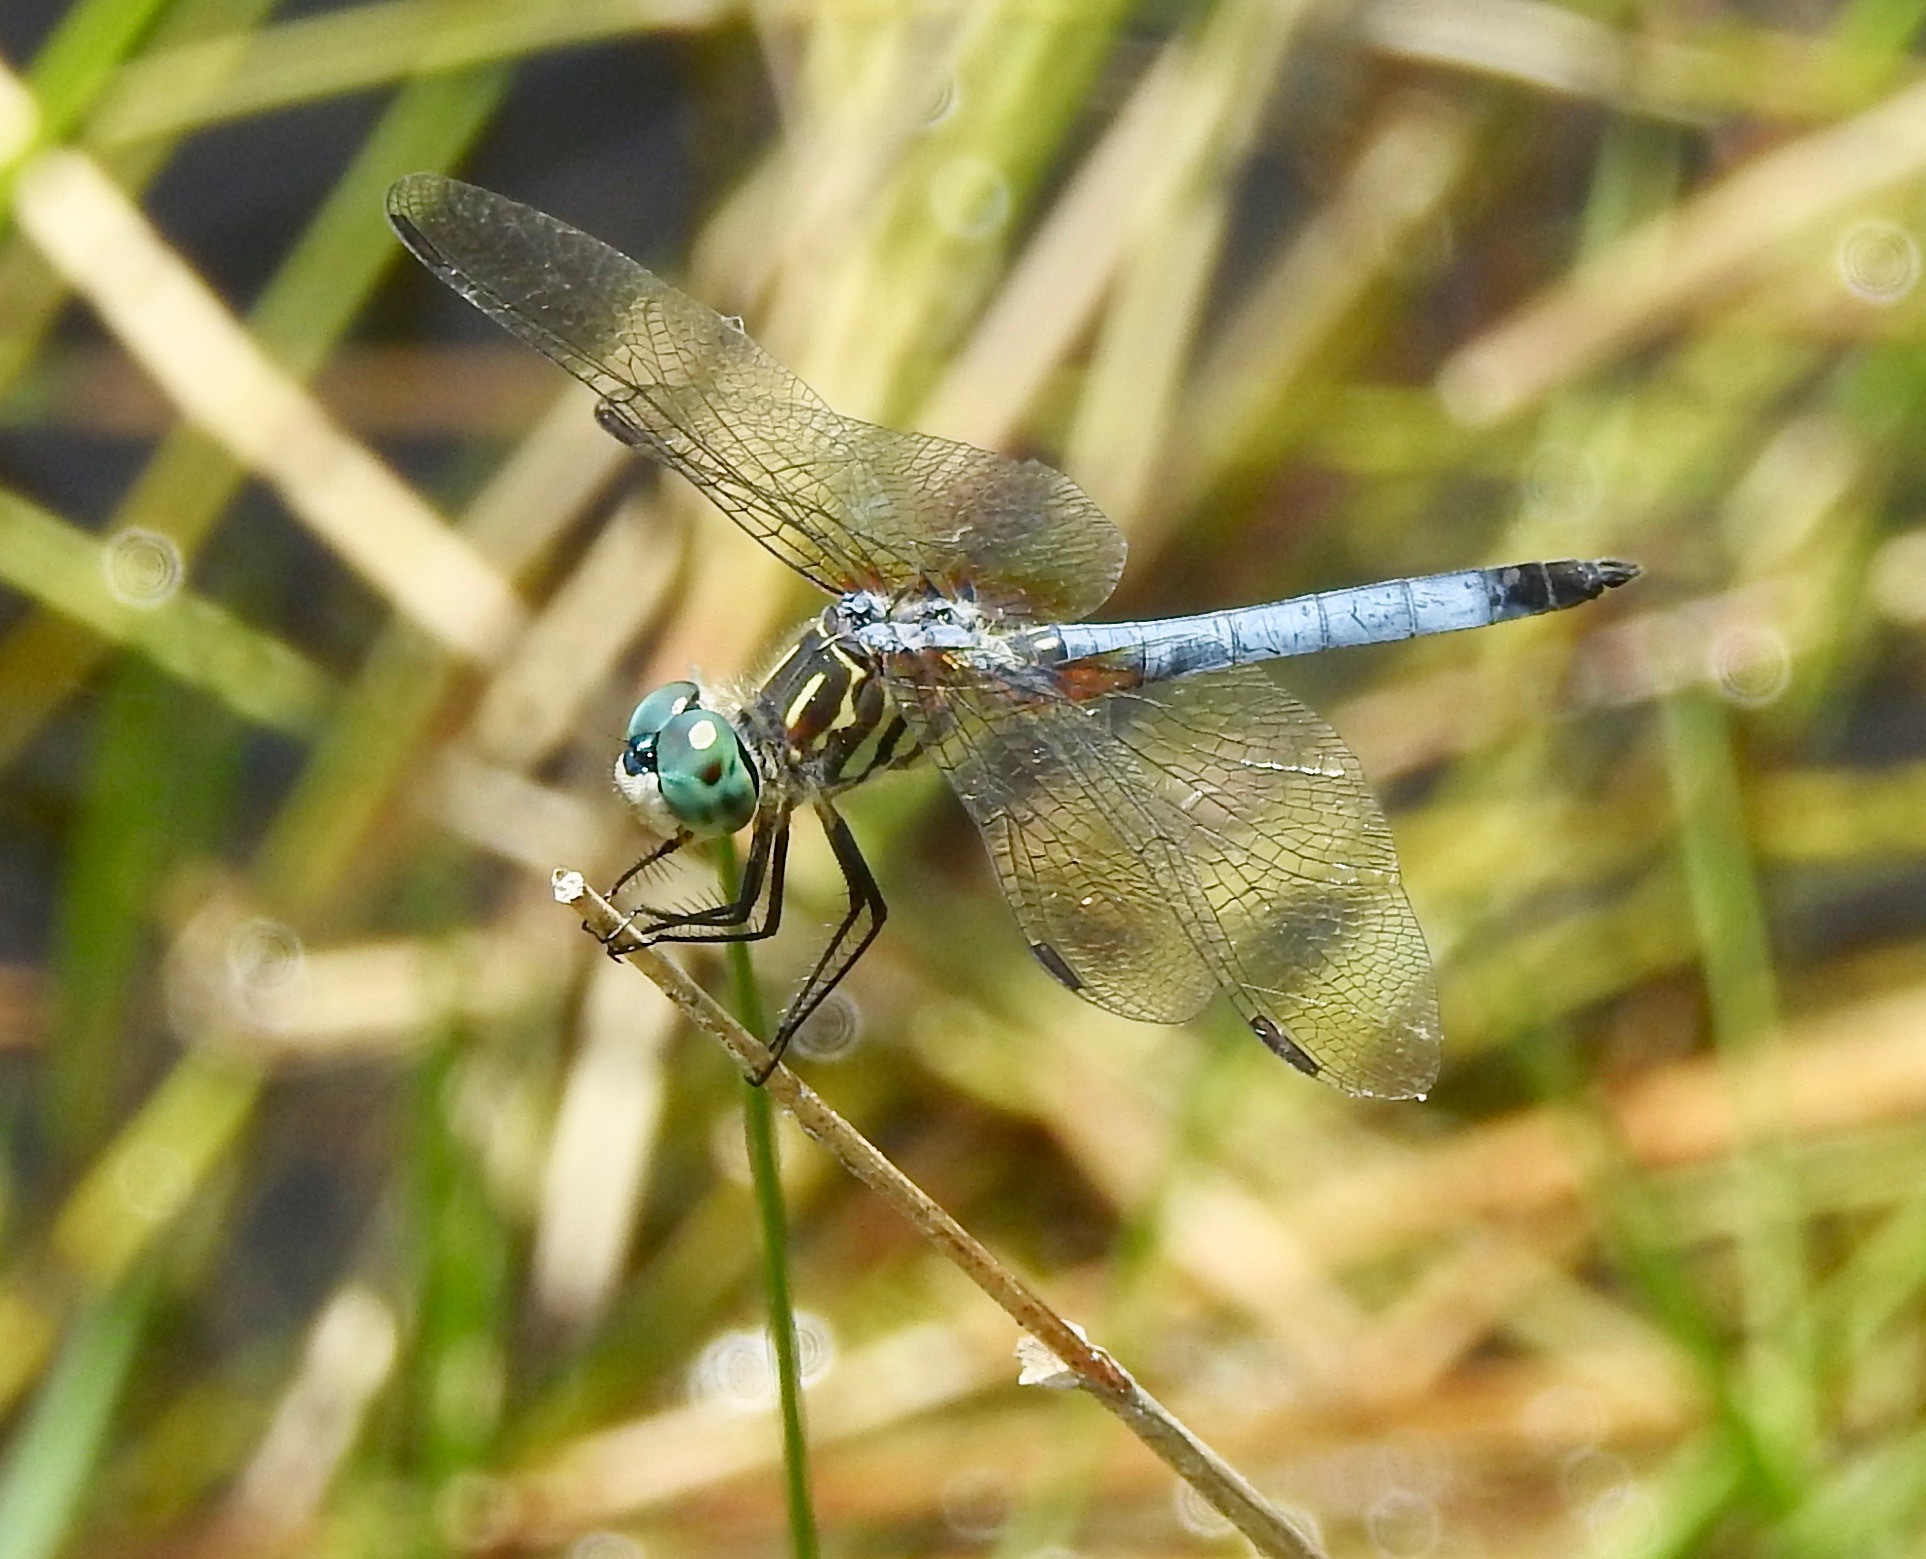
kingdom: Animalia
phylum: Arthropoda
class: Insecta
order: Odonata
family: Libellulidae
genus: Pachydiplax
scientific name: Pachydiplax longipennis
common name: Blue dasher
